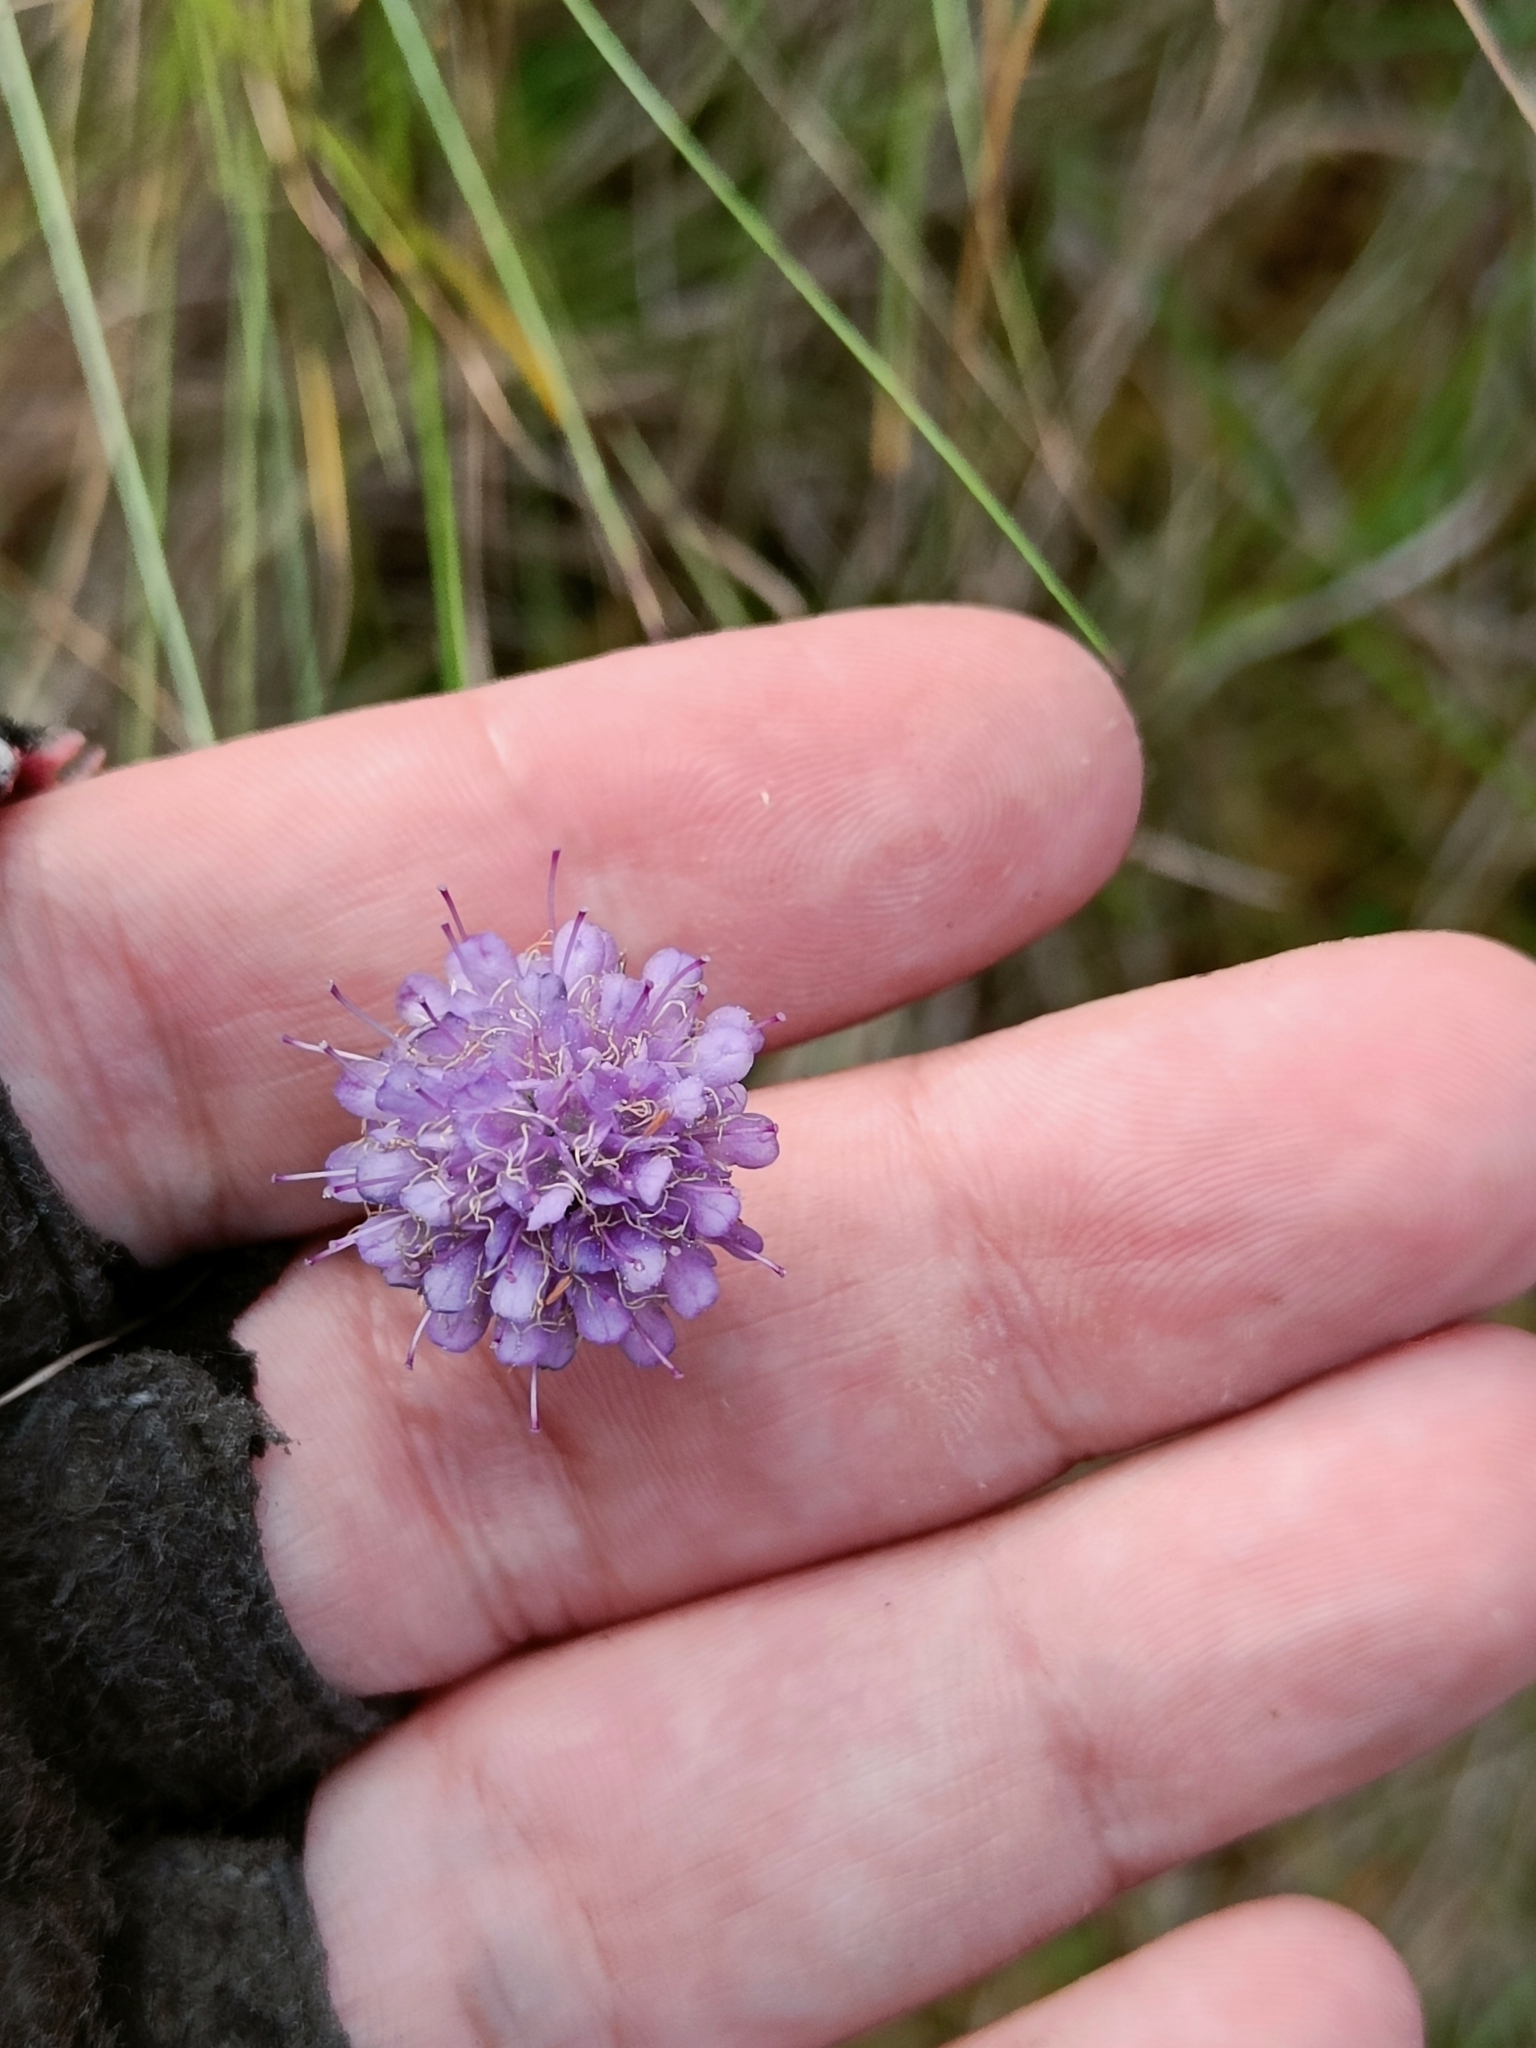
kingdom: Plantae
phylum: Tracheophyta
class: Magnoliopsida
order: Dipsacales
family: Caprifoliaceae
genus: Succisa
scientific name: Succisa pratensis
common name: Devil's-bit
